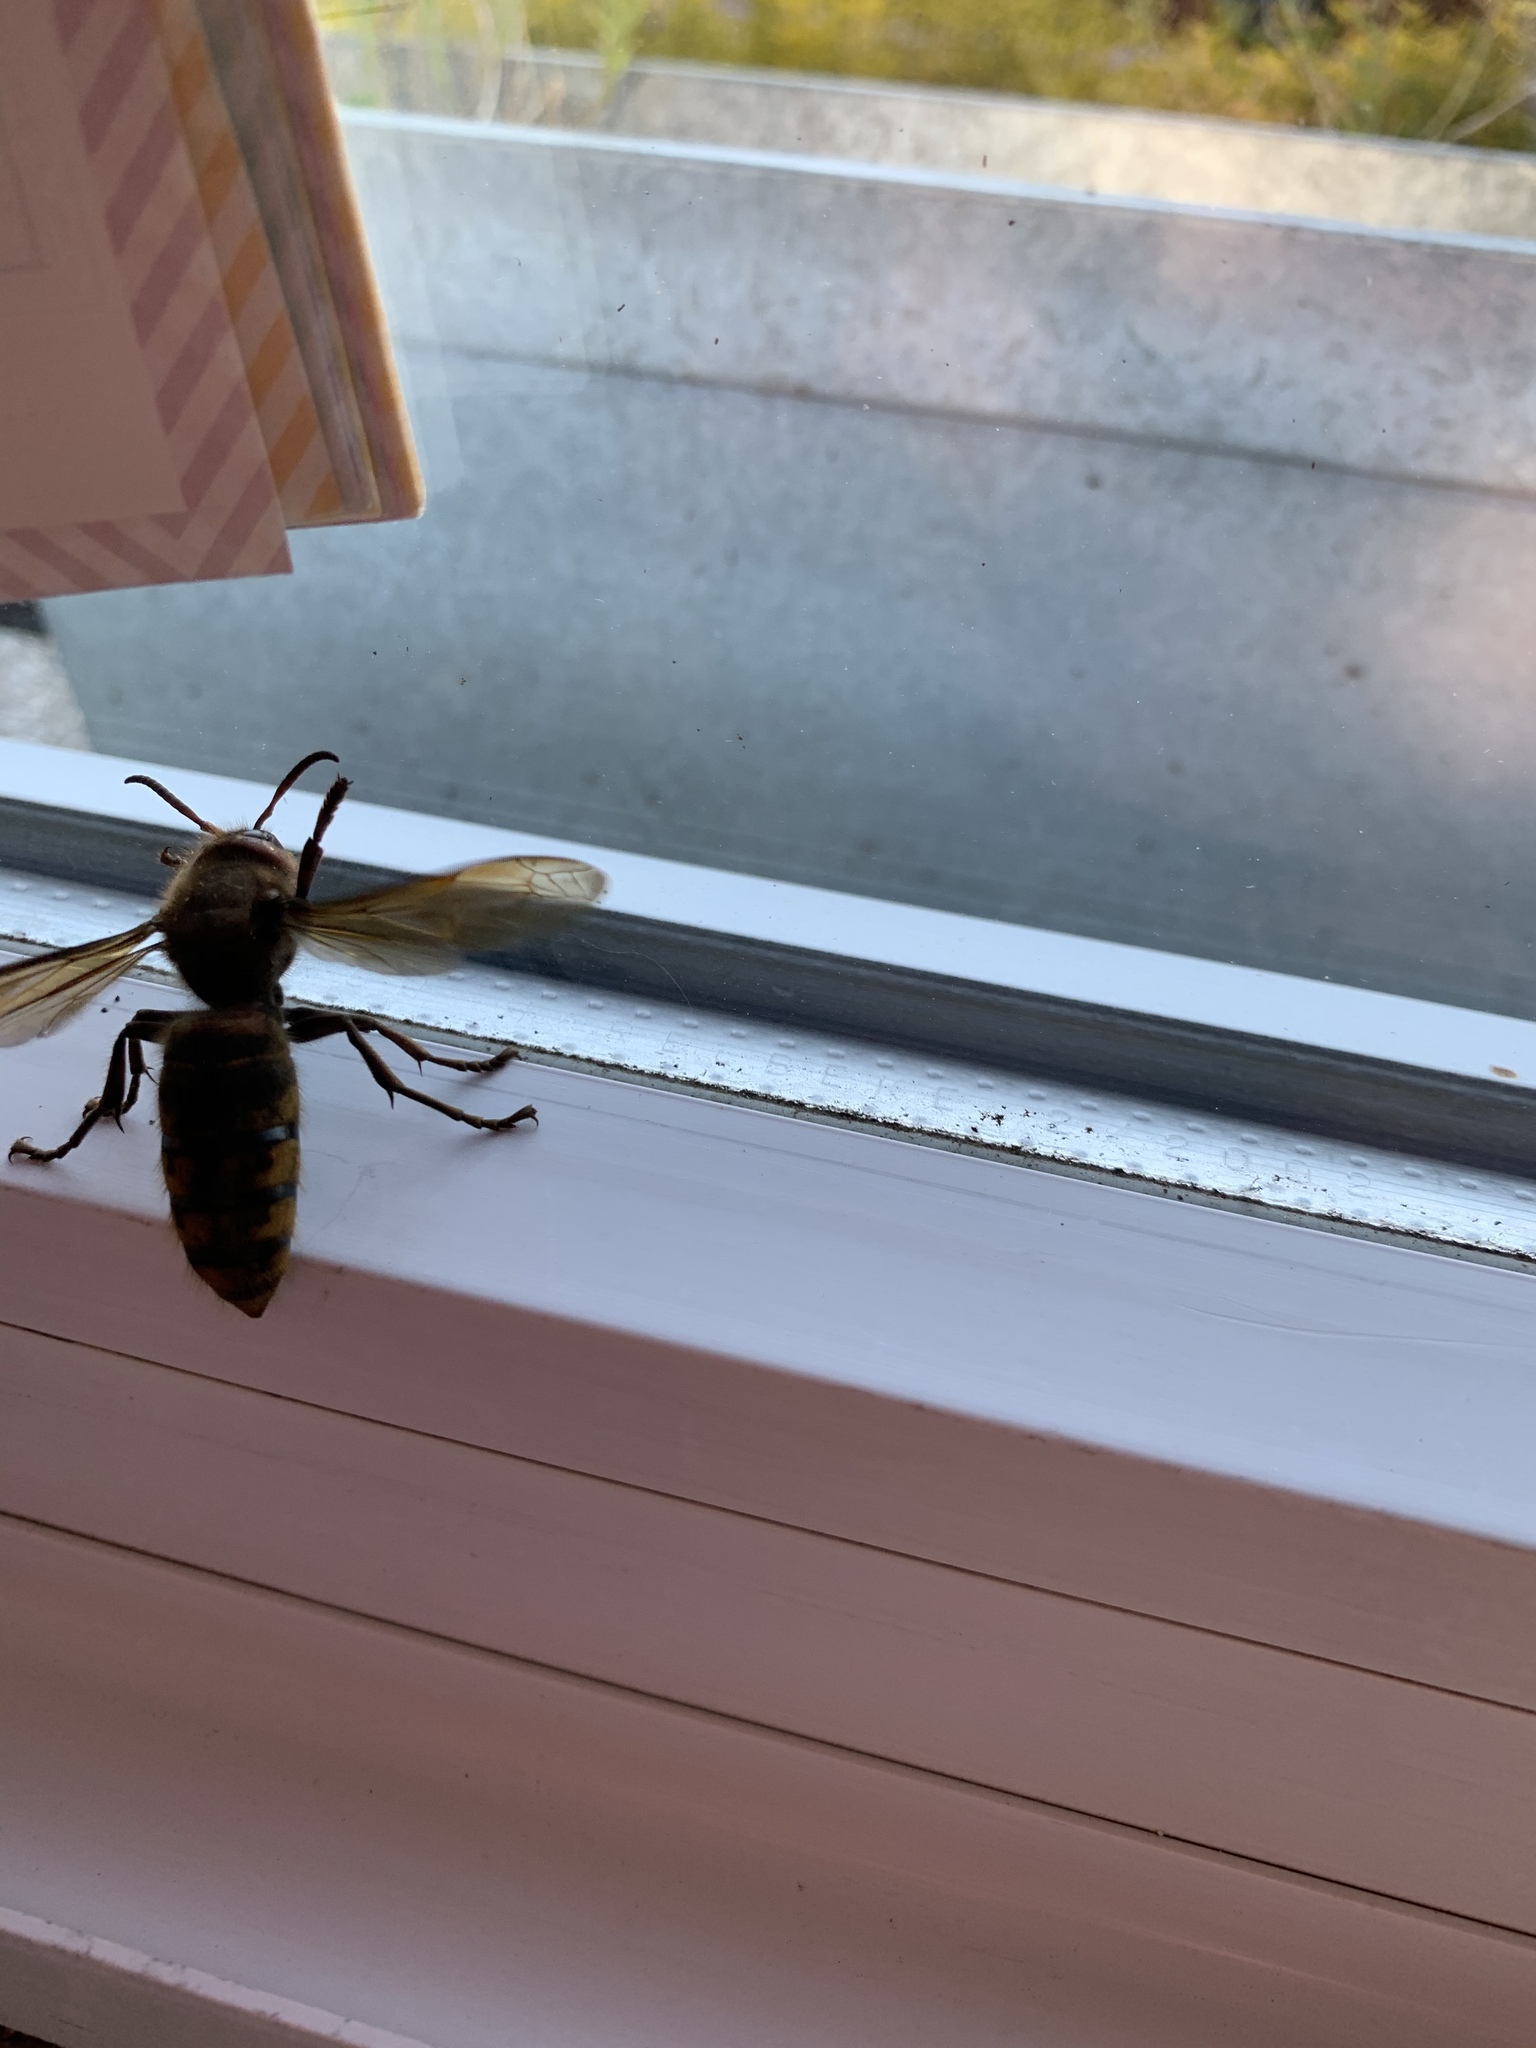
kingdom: Animalia
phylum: Arthropoda
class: Insecta
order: Hymenoptera
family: Vespidae
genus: Vespa
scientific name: Vespa crabro
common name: Hornet
